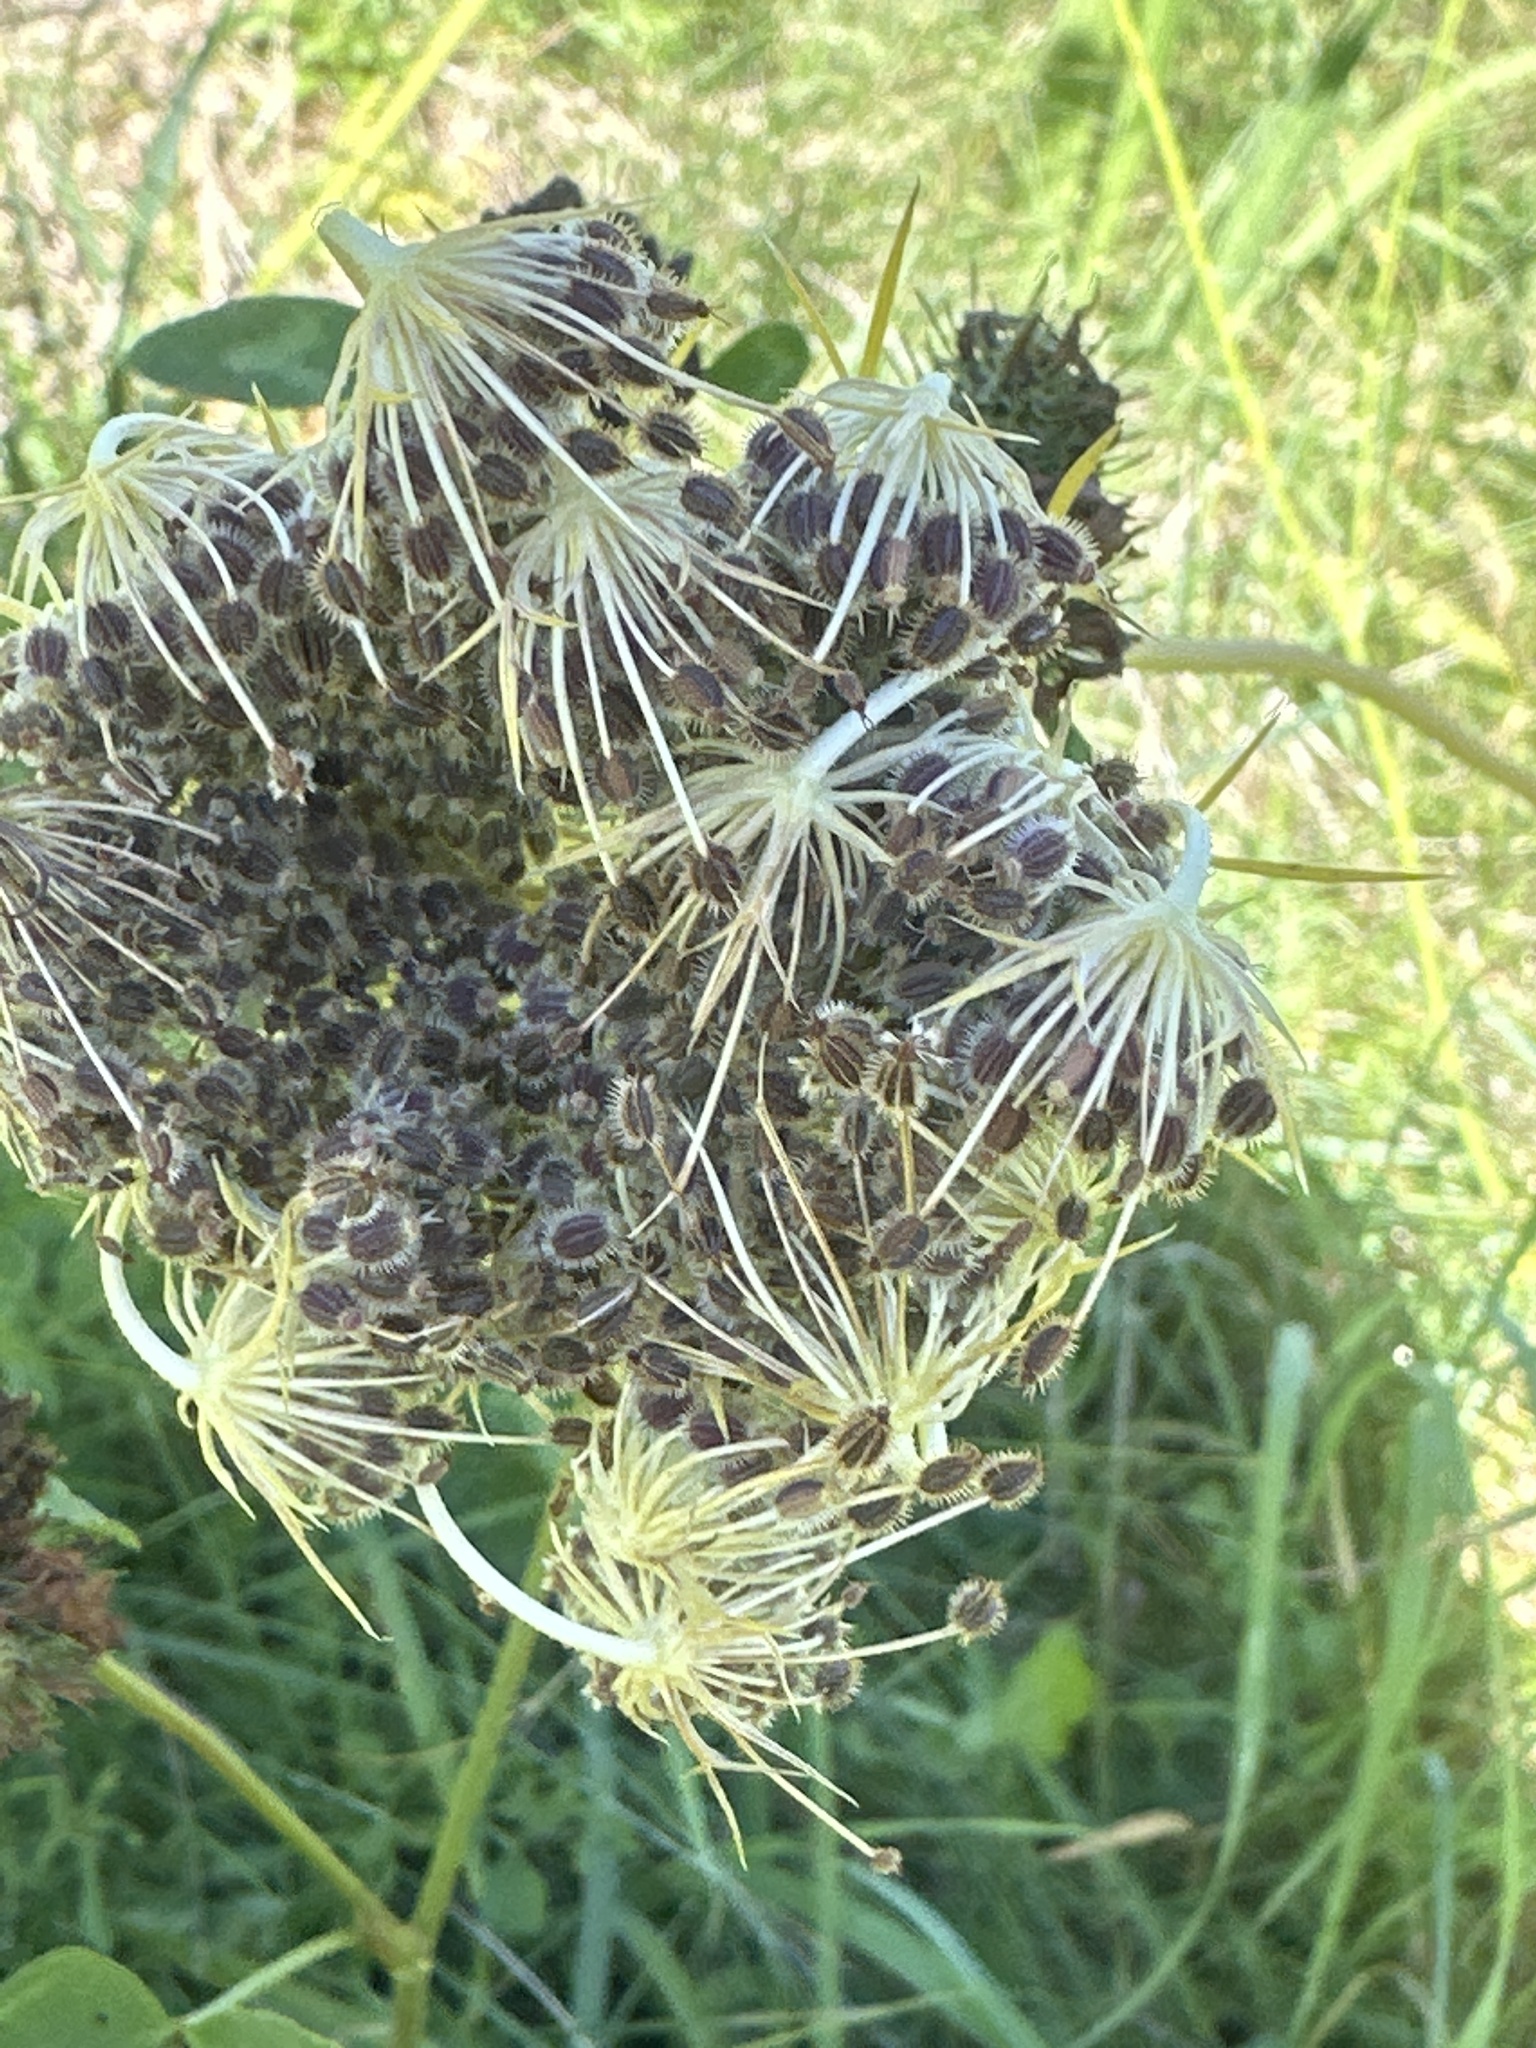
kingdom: Plantae
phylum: Tracheophyta
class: Magnoliopsida
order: Apiales
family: Apiaceae
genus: Daucus
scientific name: Daucus carota
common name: Wild carrot
